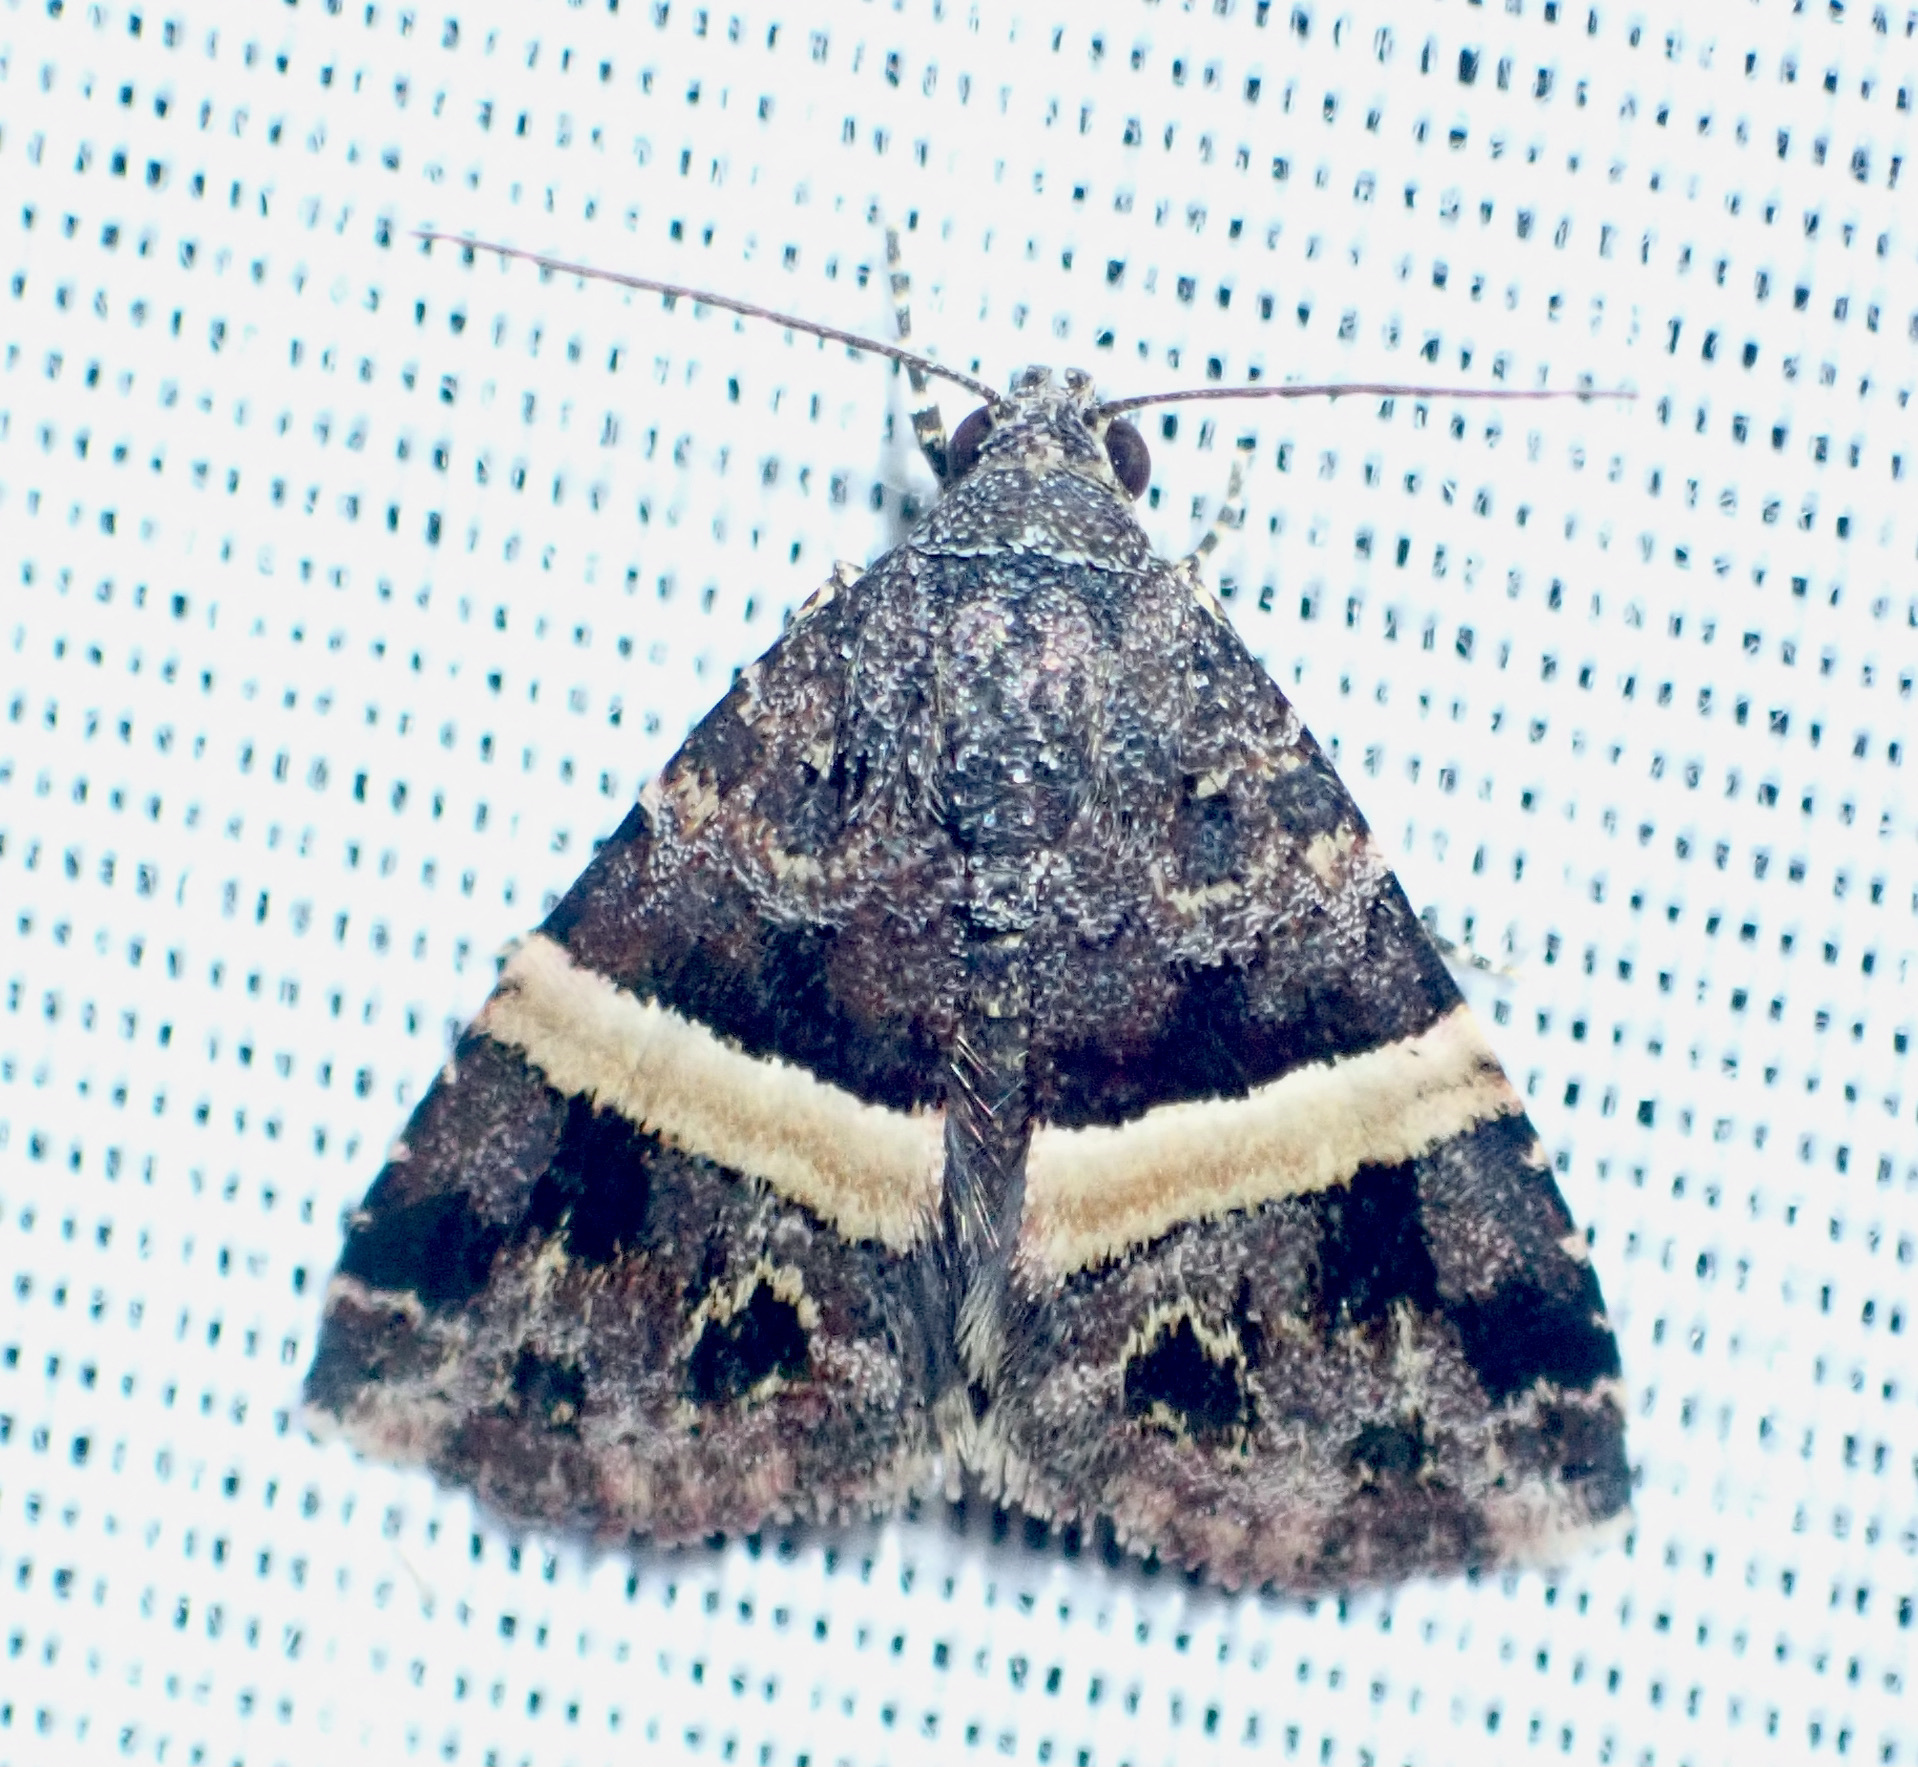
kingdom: Animalia
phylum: Arthropoda
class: Insecta
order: Lepidoptera
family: Noctuidae
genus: Ozarba
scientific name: Ozarba abscissa
